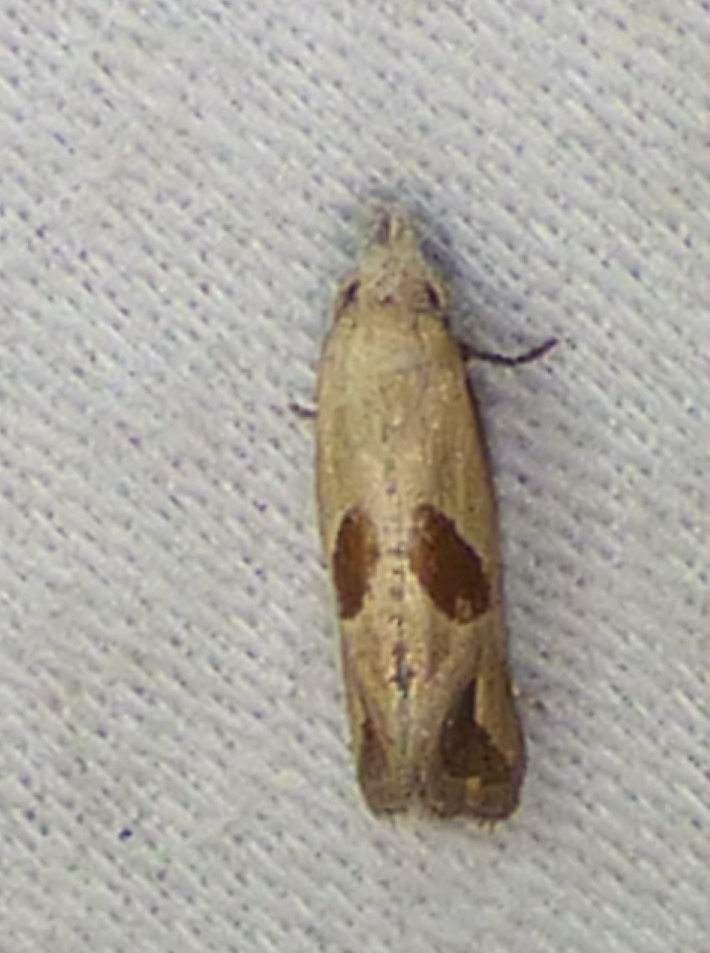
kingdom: Animalia
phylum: Arthropoda
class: Insecta
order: Lepidoptera
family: Tortricidae
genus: Eugnosta
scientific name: Eugnosta bimaculana
